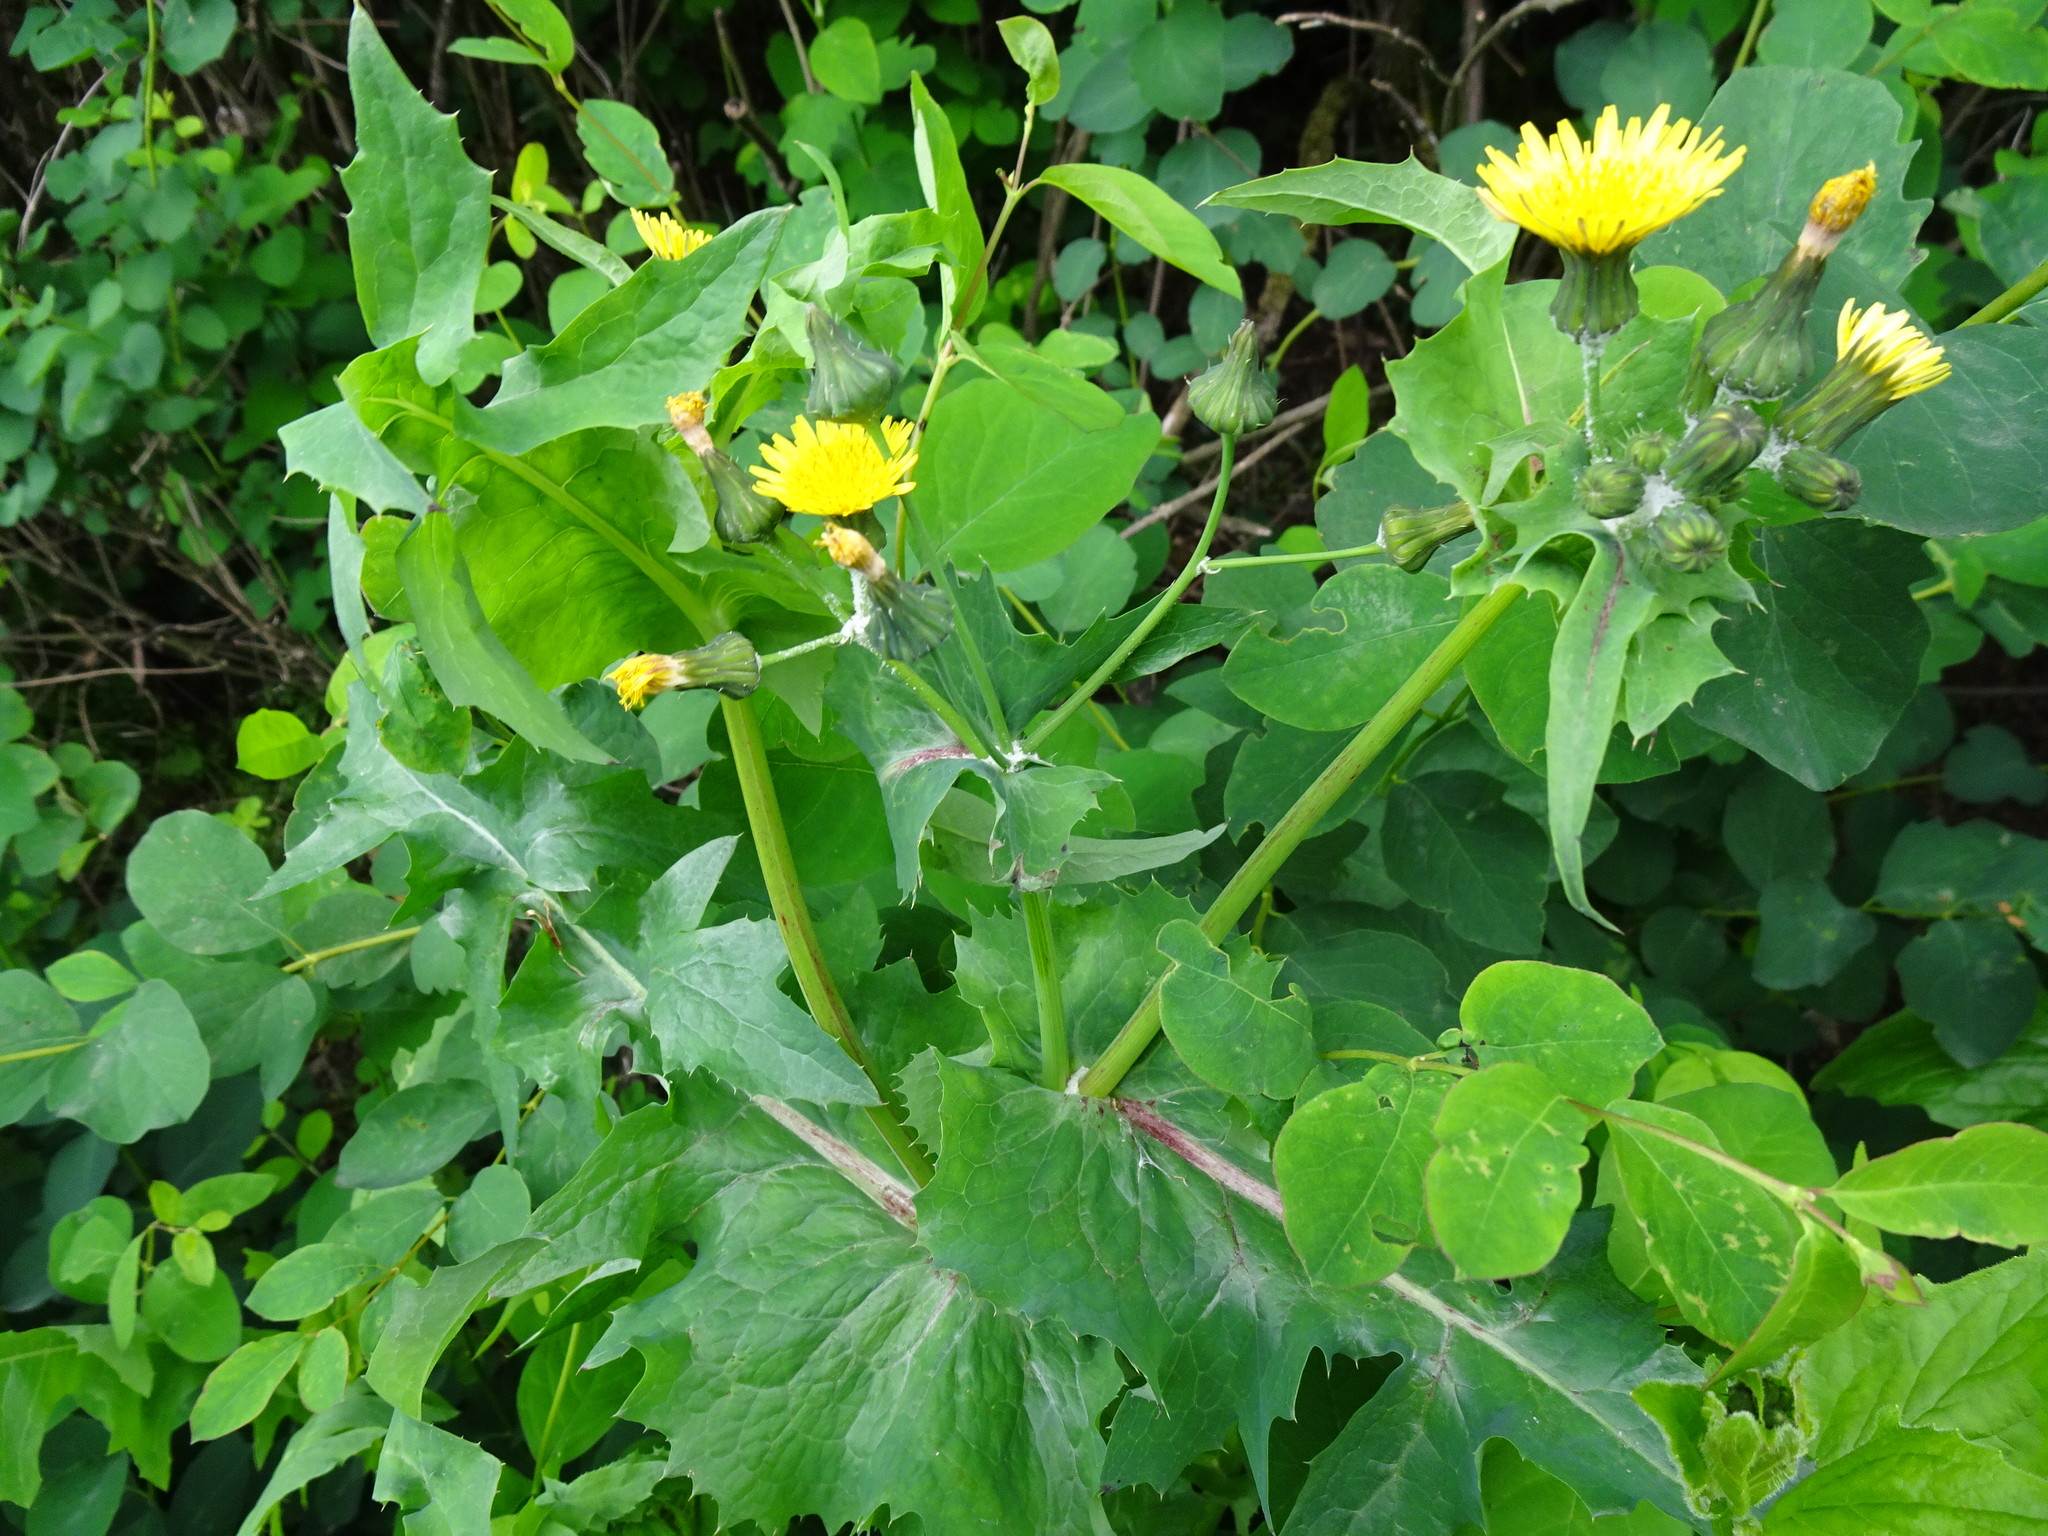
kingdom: Plantae
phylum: Tracheophyta
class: Magnoliopsida
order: Asterales
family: Asteraceae
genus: Sonchus
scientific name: Sonchus oleraceus
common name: Common sowthistle
